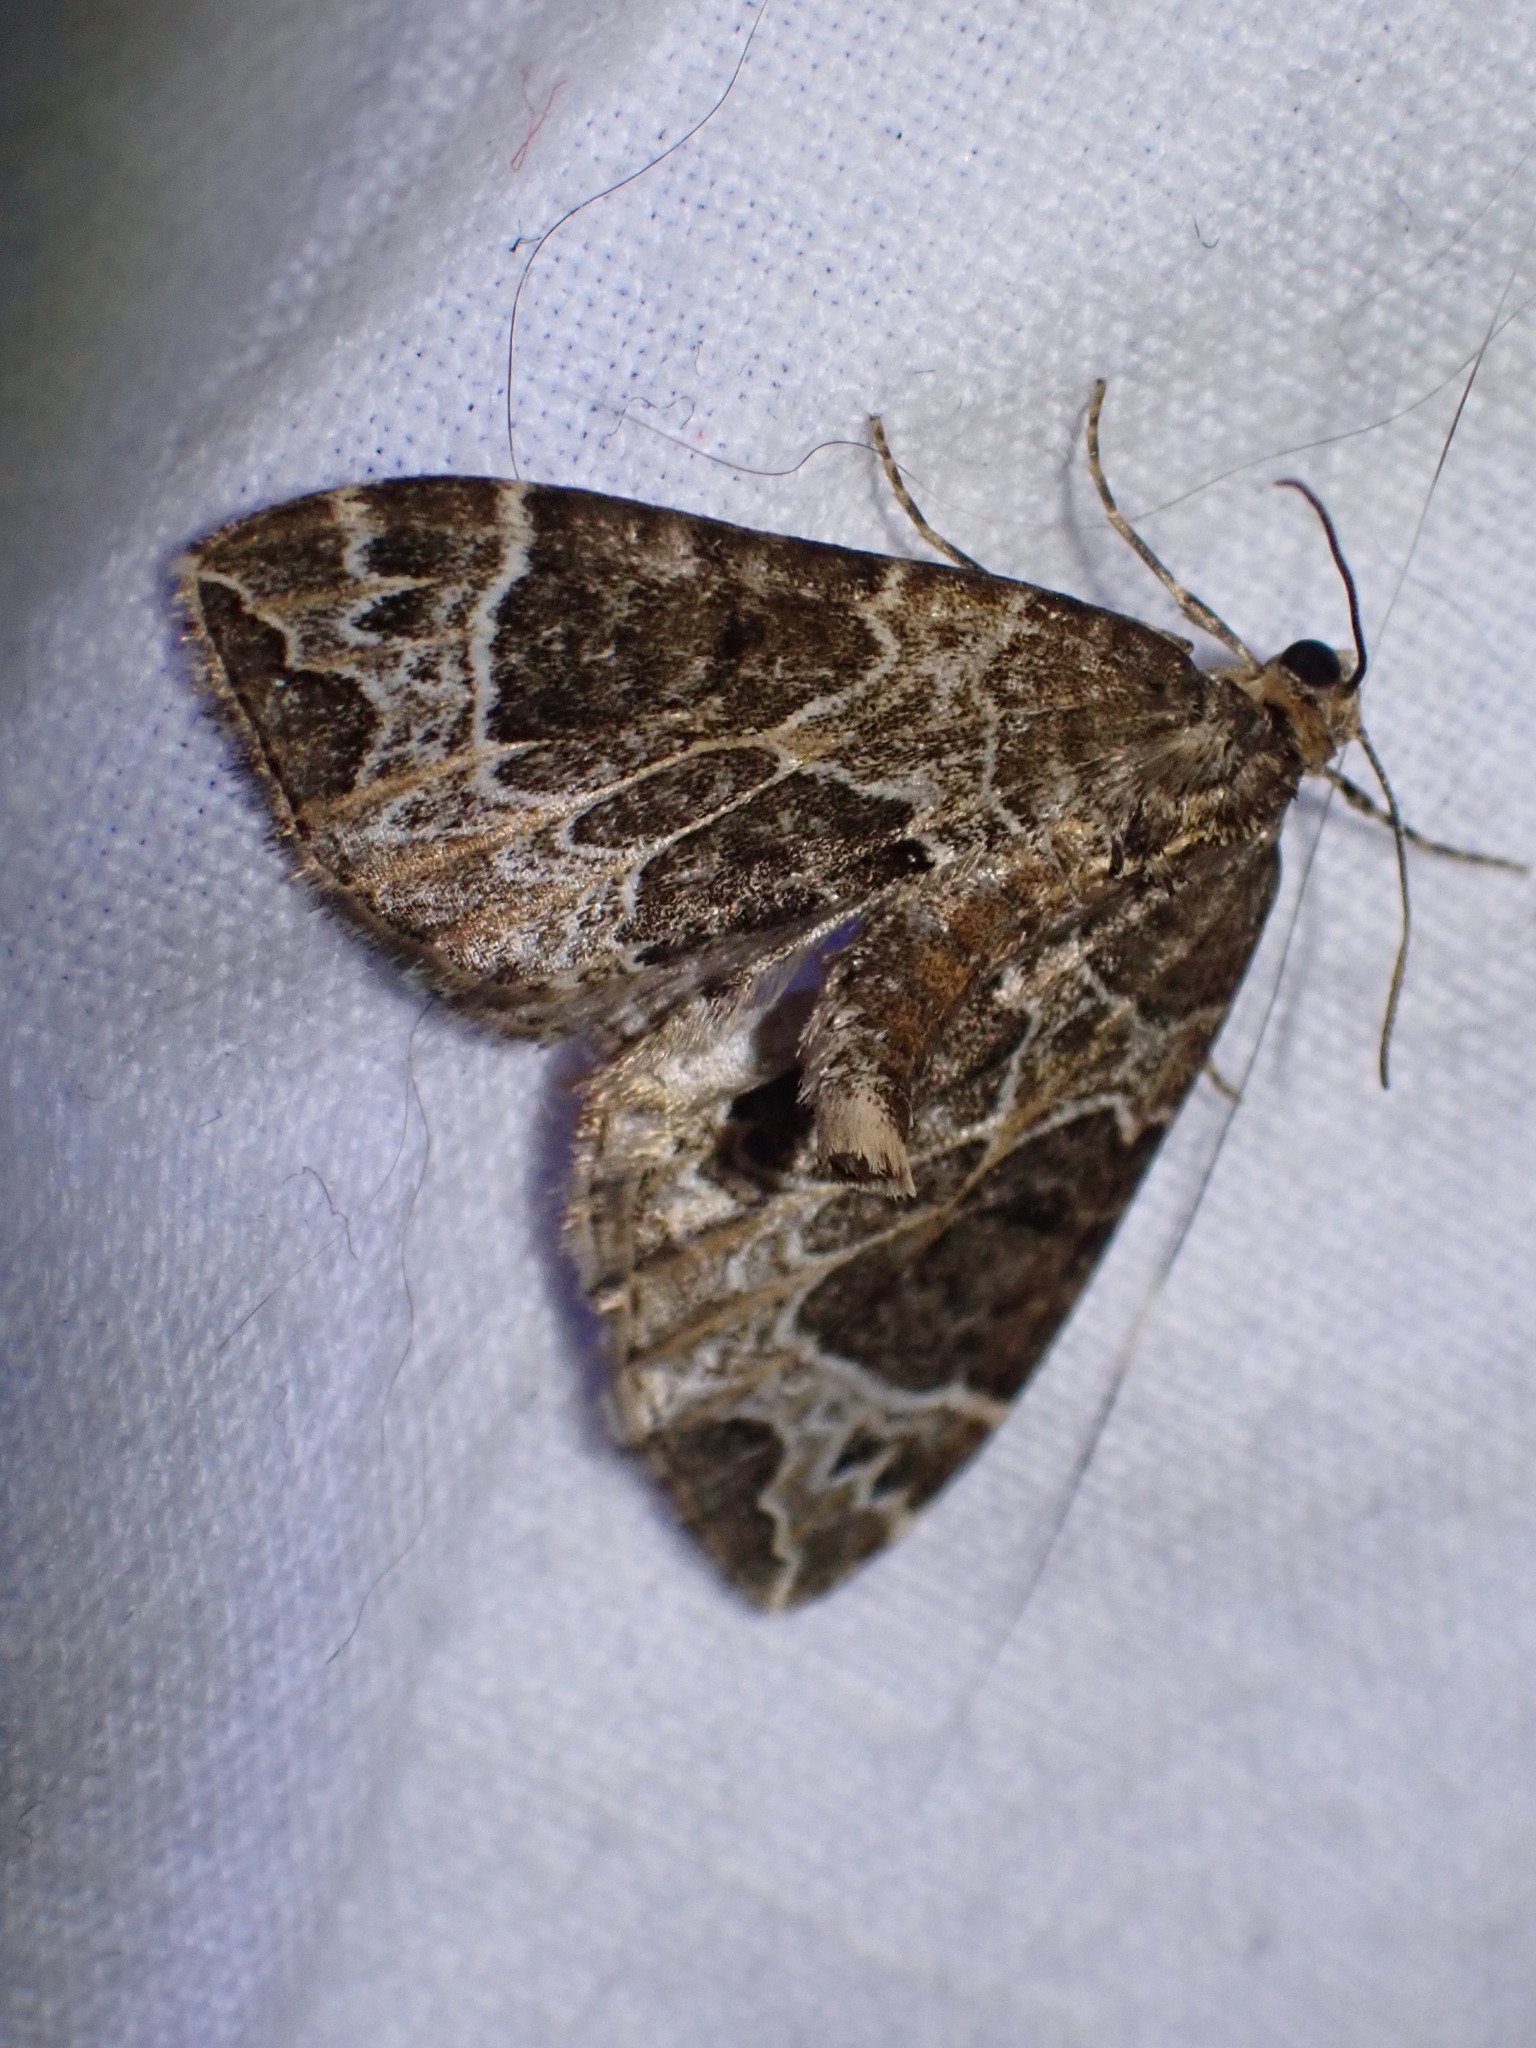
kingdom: Animalia
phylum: Arthropoda
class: Insecta
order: Lepidoptera
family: Geometridae
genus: Ecliptopera
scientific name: Ecliptopera silaceata
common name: Small phoenix
